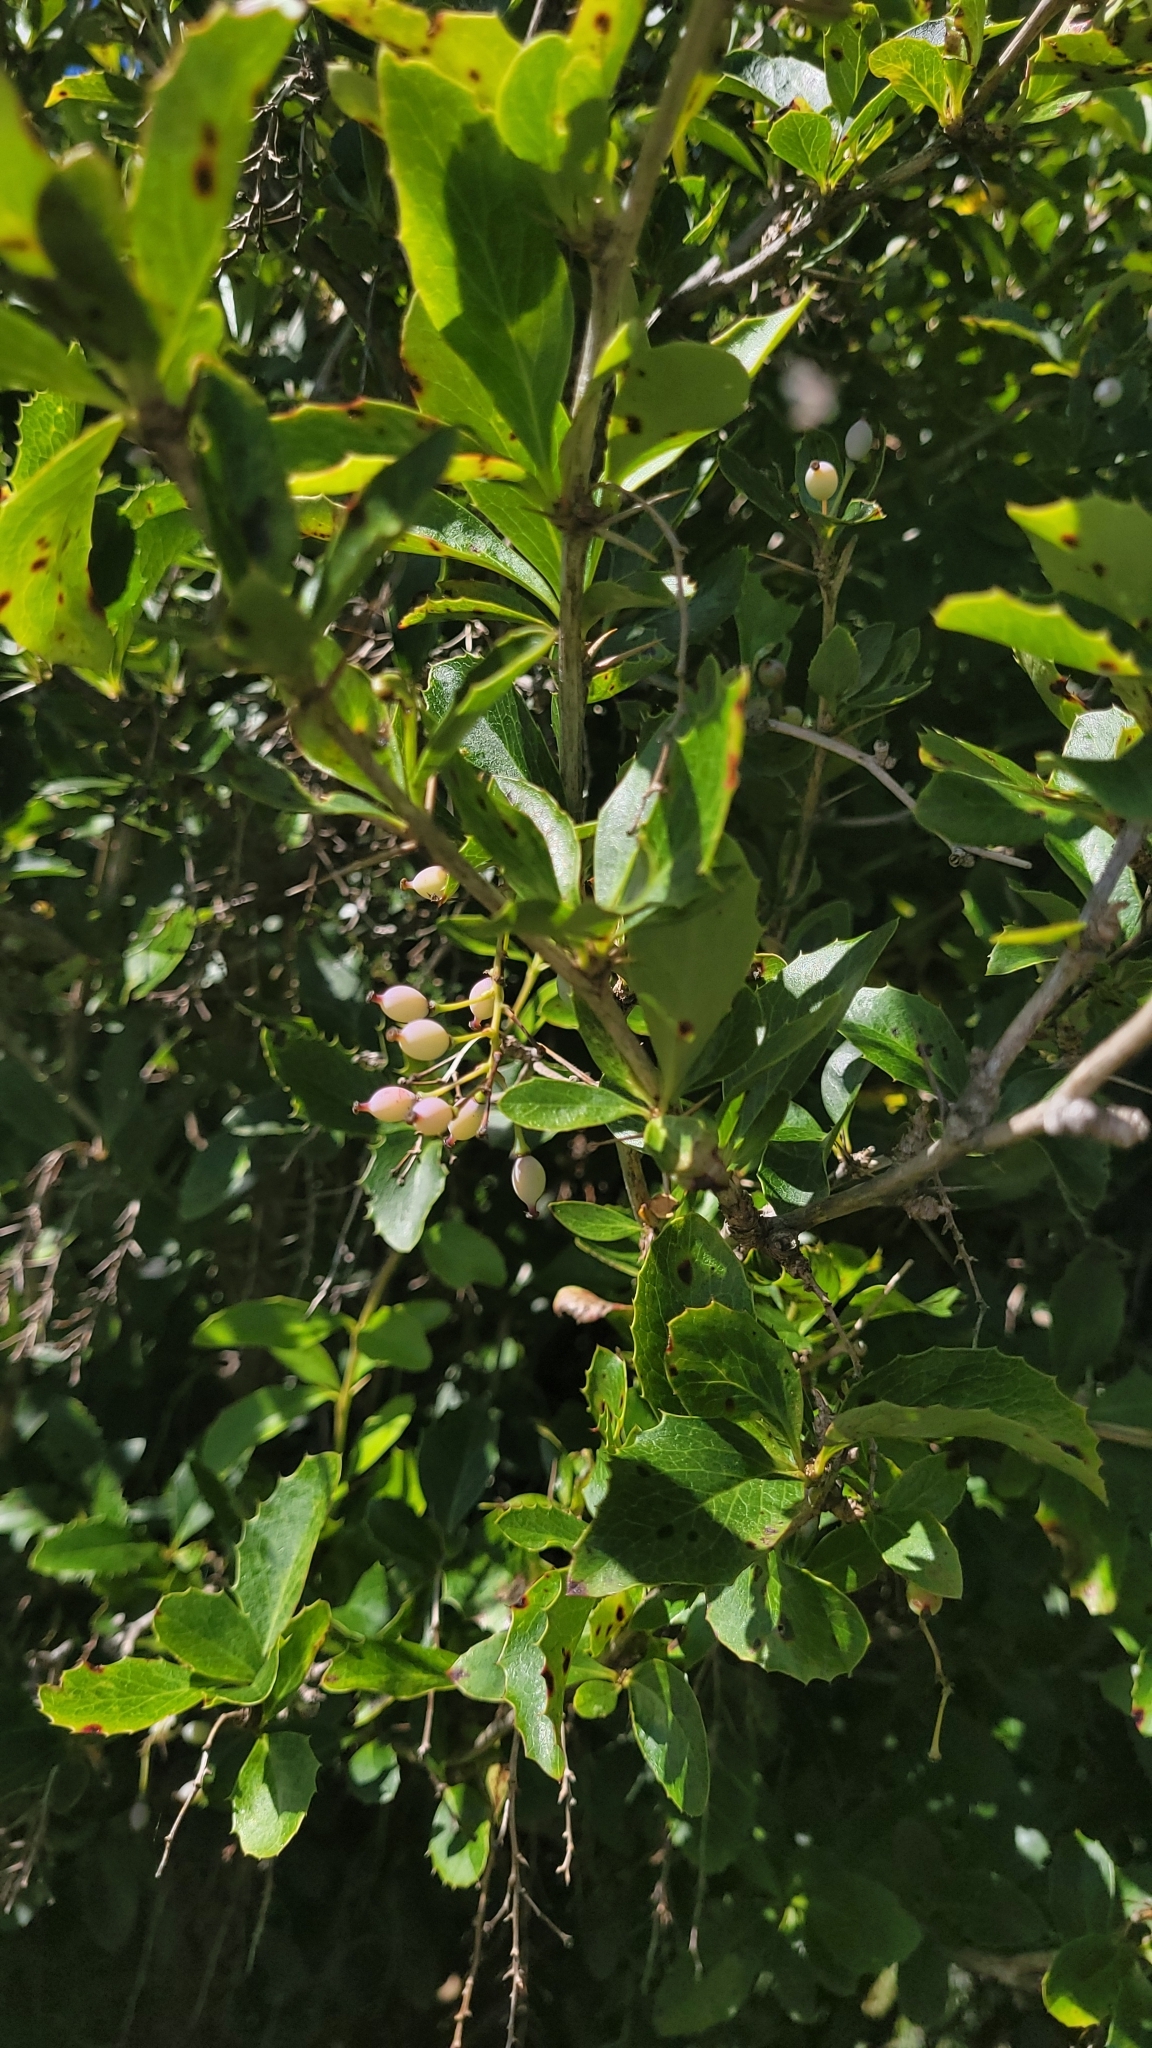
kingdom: Plantae
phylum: Tracheophyta
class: Magnoliopsida
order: Ranunculales
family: Berberidaceae
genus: Berberis
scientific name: Berberis glaucocarpa
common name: Great barberry
